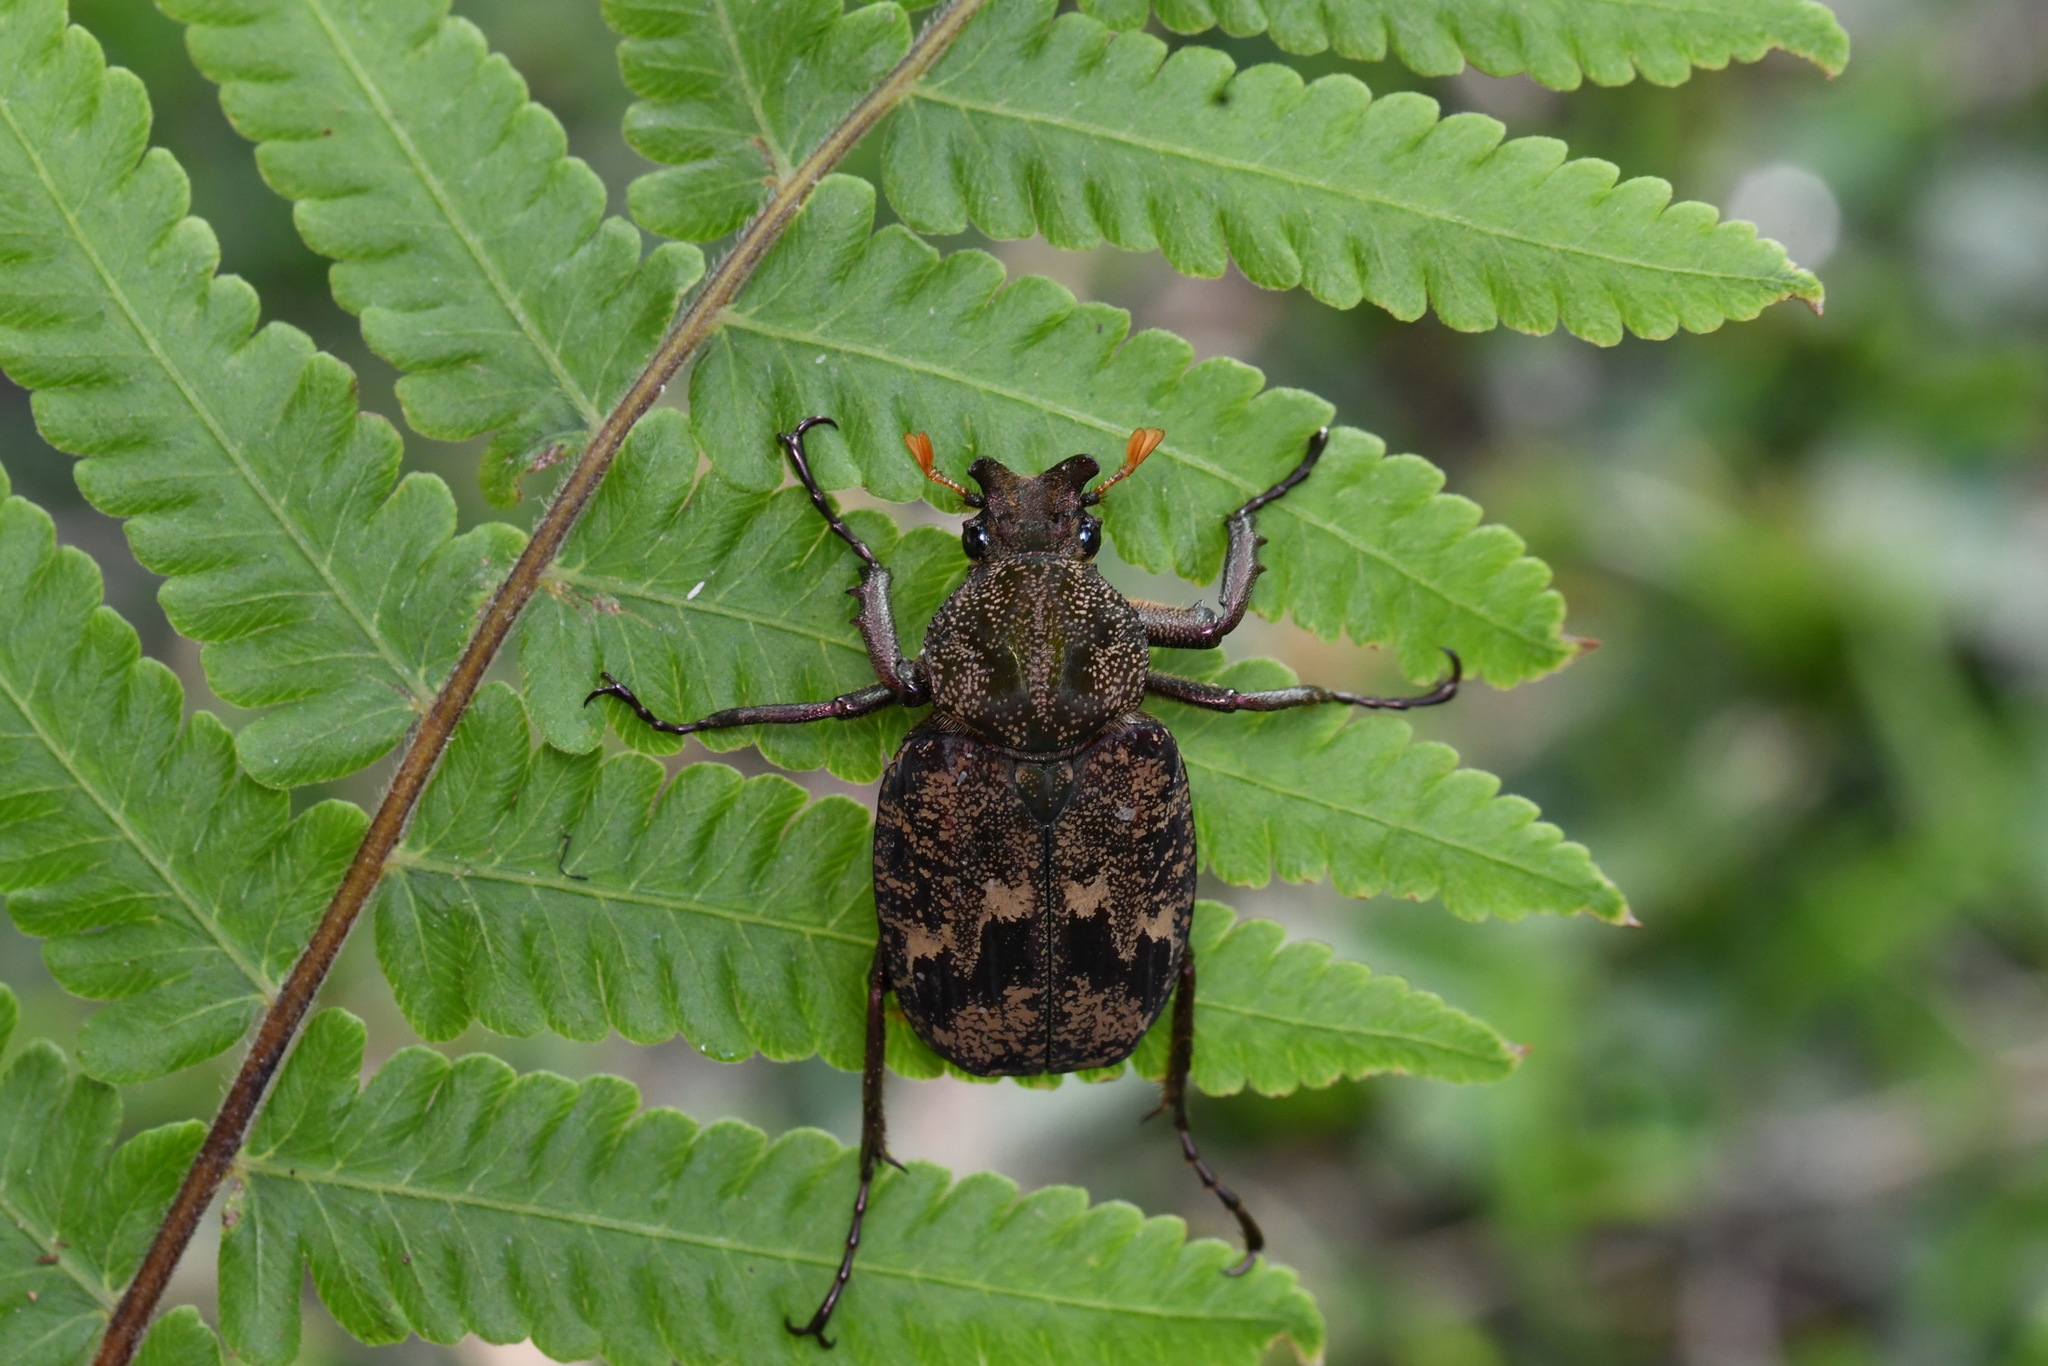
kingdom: Animalia
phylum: Arthropoda
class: Insecta
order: Coleoptera
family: Scarabaeidae
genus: Inca
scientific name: Inca bonplandi
